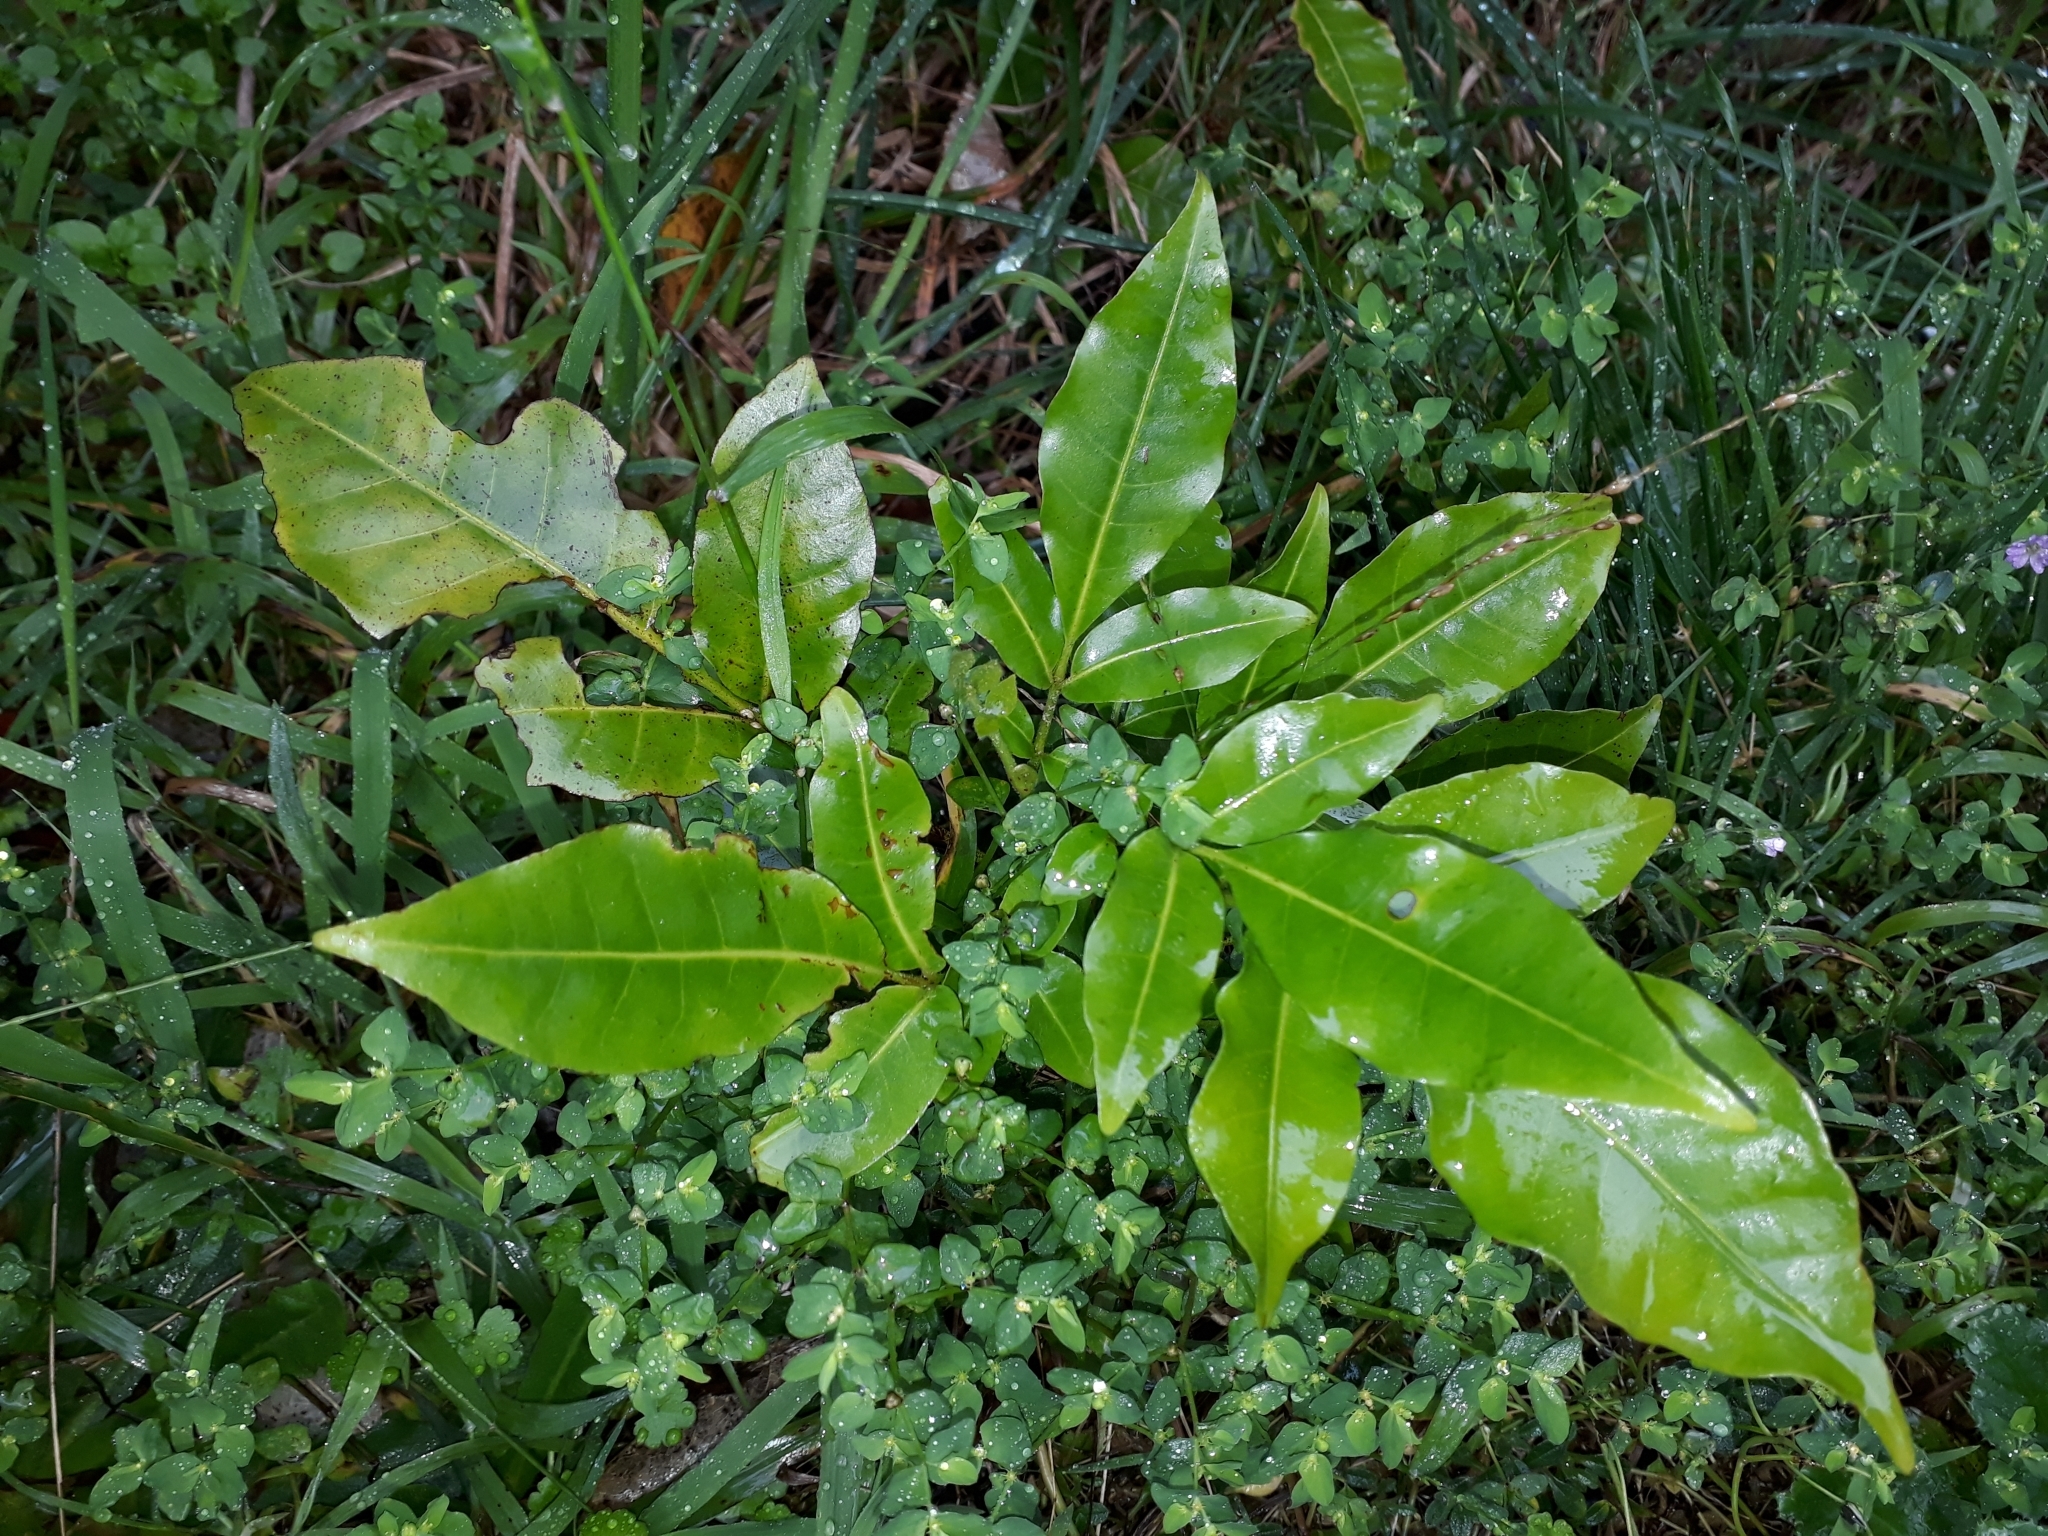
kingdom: Plantae
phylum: Tracheophyta
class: Magnoliopsida
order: Sapindales
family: Meliaceae
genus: Didymocheton
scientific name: Didymocheton spectabilis
